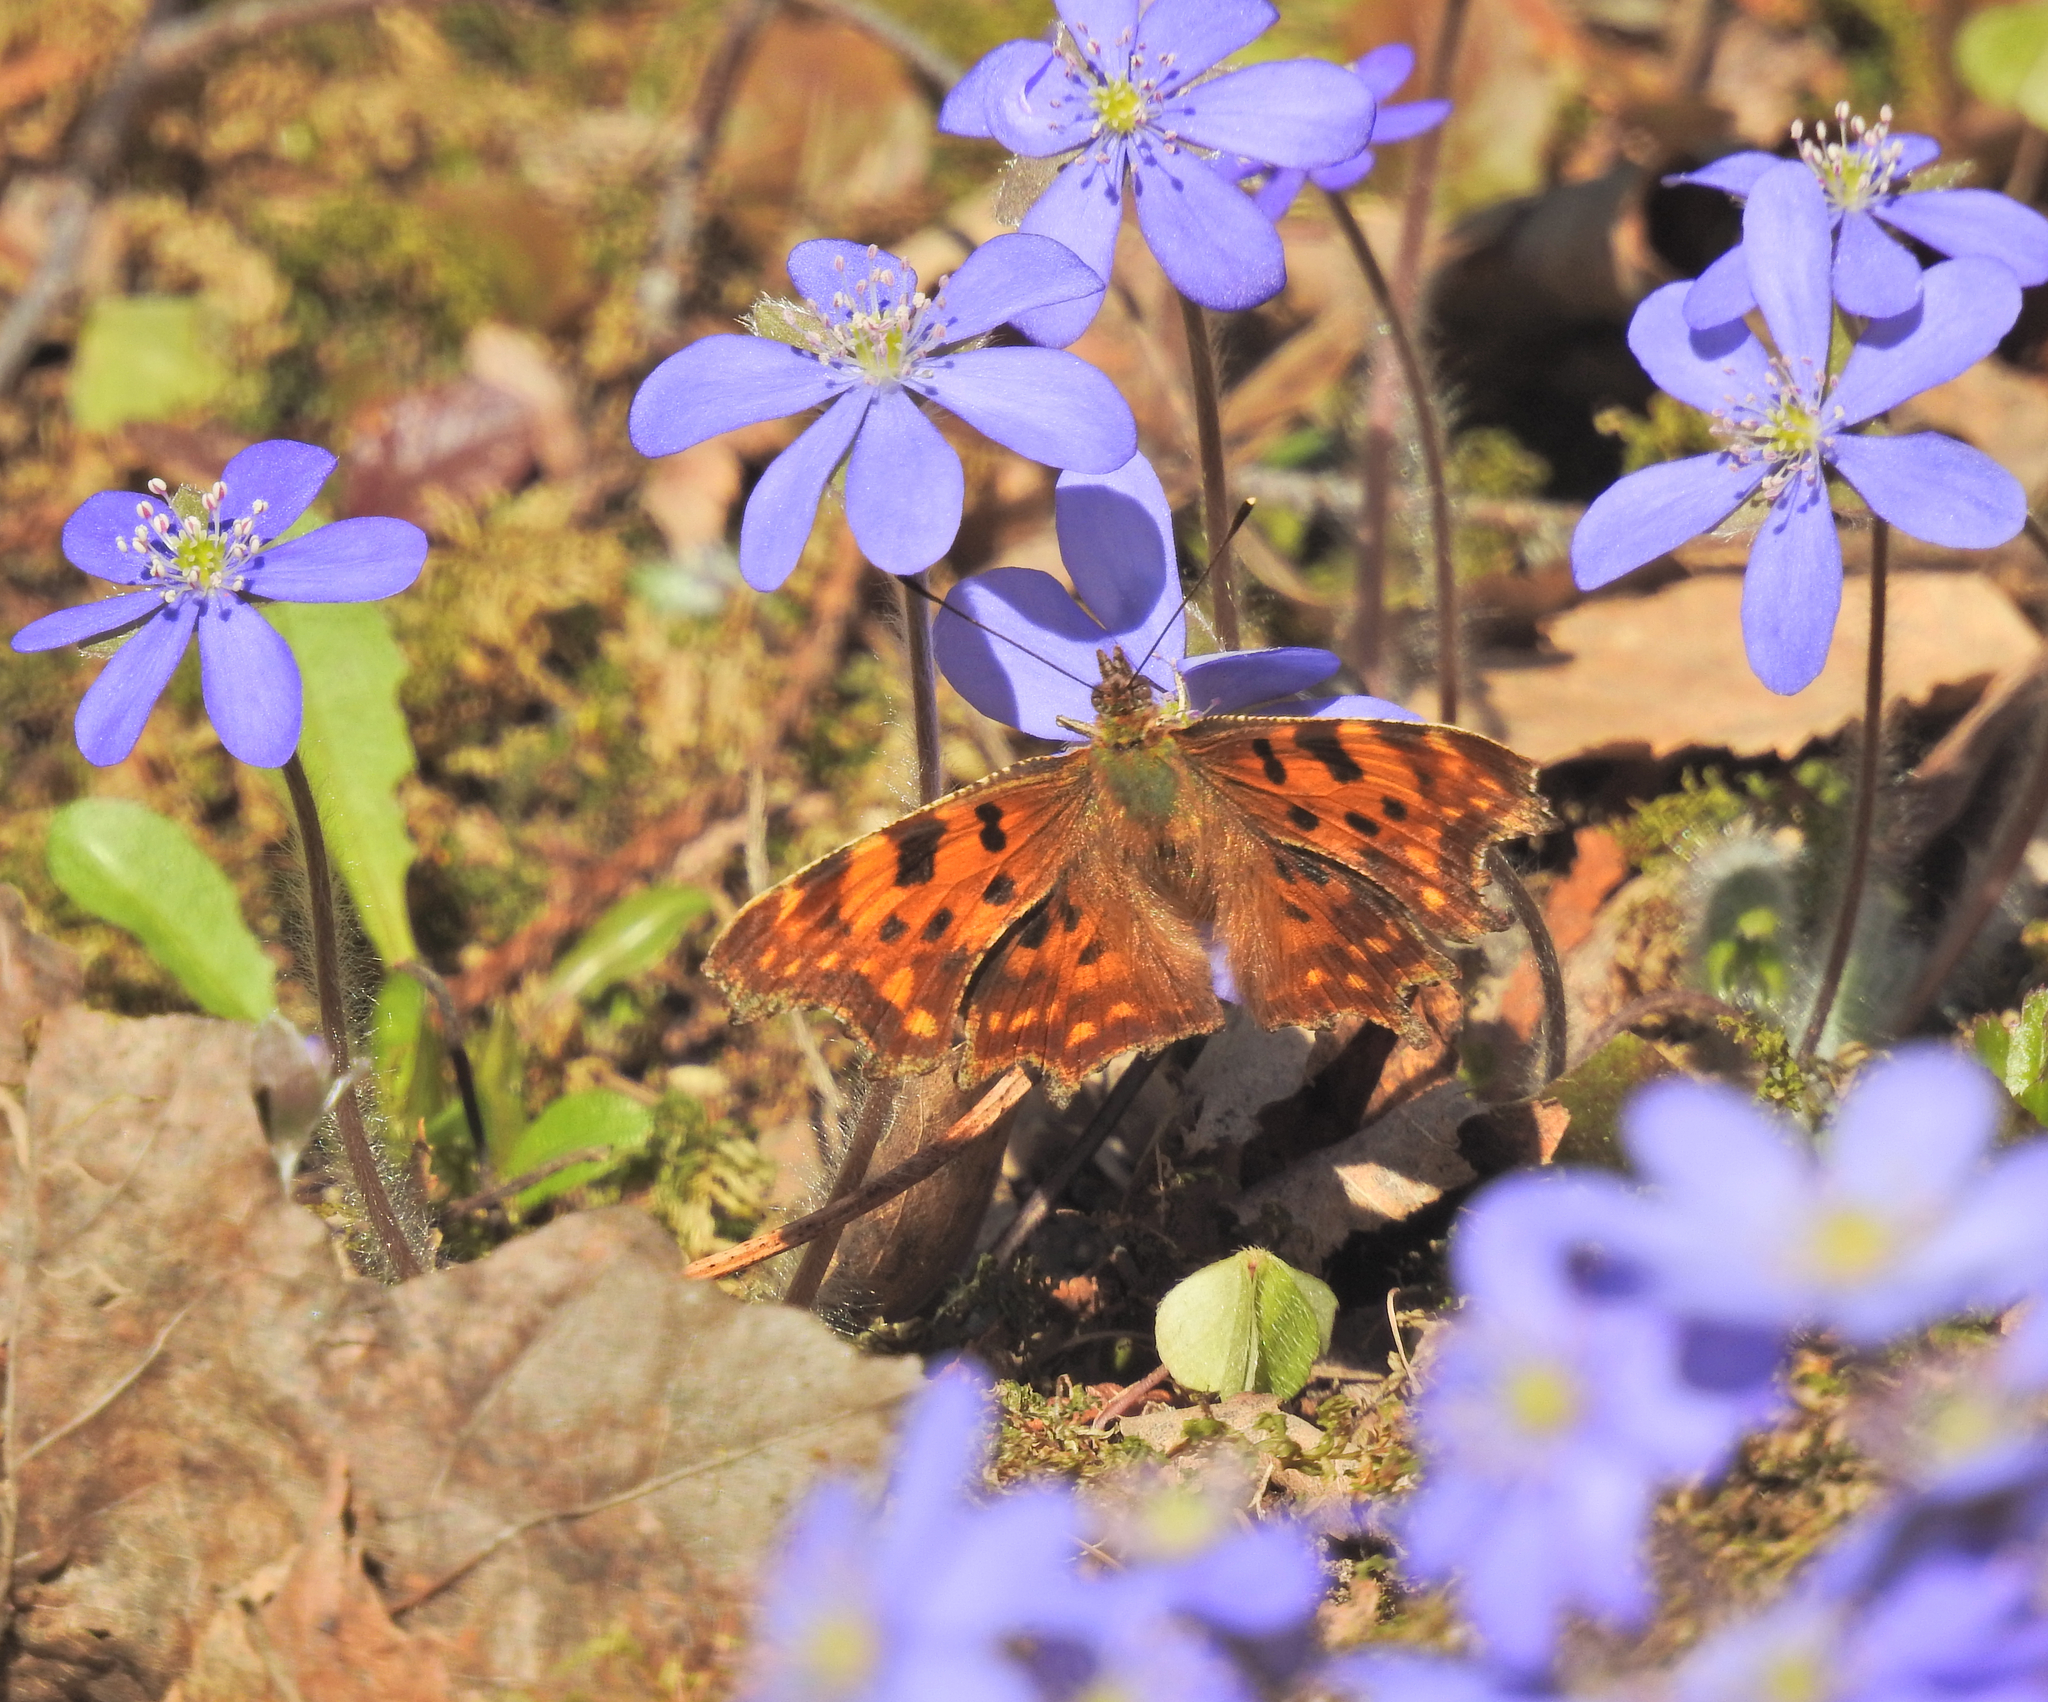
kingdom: Animalia
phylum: Arthropoda
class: Insecta
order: Lepidoptera
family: Nymphalidae
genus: Polygonia
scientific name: Polygonia c-album
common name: Comma
